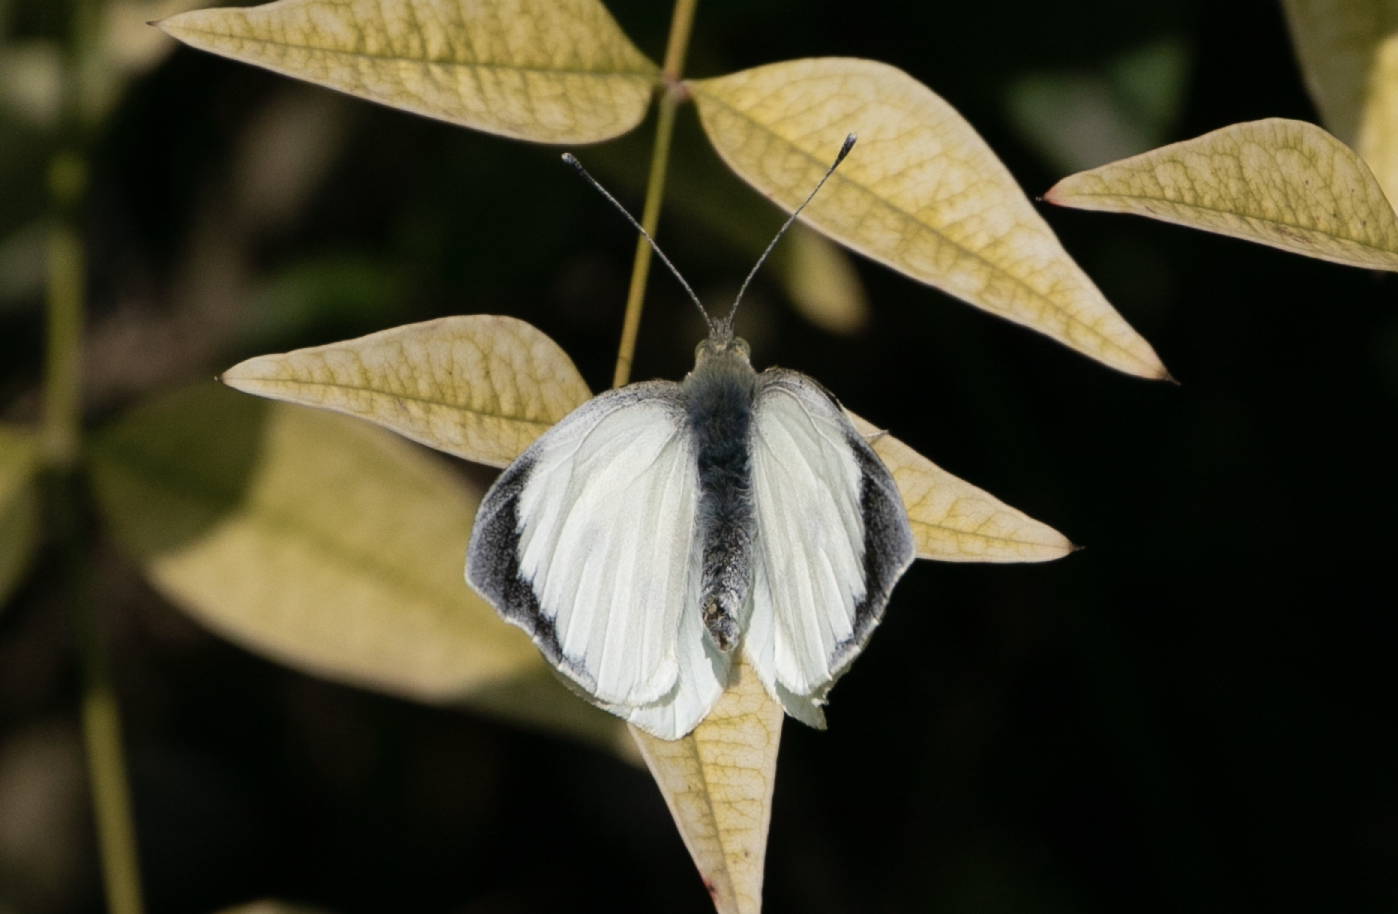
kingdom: Animalia
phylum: Arthropoda
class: Insecta
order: Lepidoptera
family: Pieridae
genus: Pieris
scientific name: Pieris brassicae
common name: Large white
